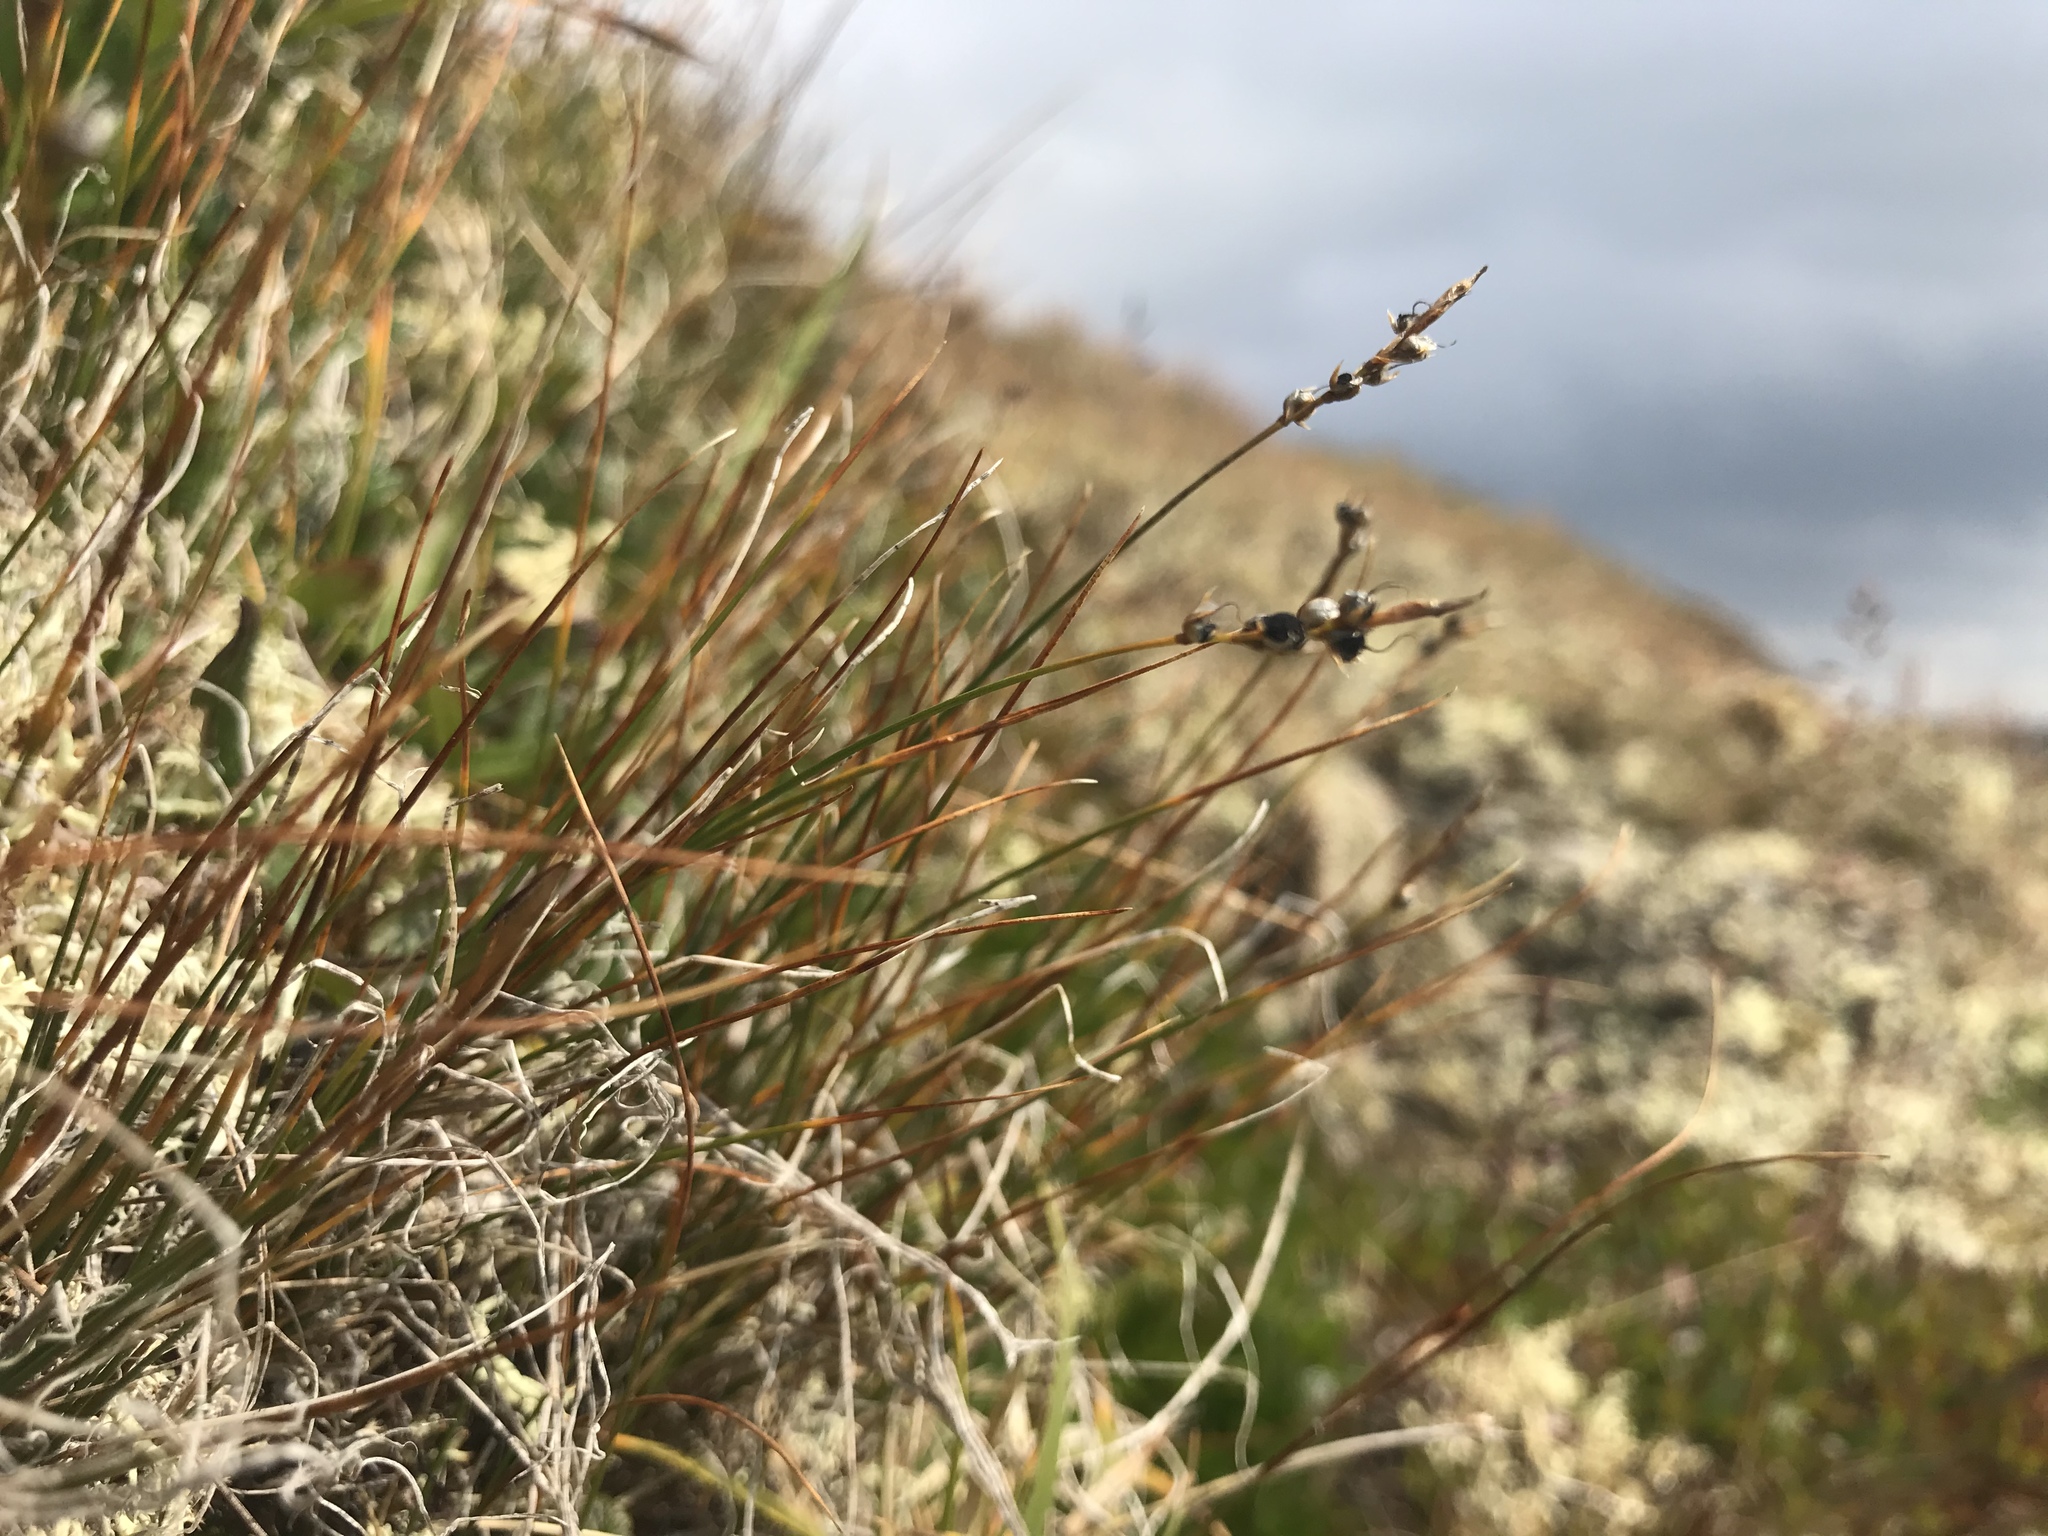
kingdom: Plantae
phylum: Tracheophyta
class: Liliopsida
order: Poales
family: Cyperaceae
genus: Carex
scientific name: Carex myosuroides
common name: Bellard's bog sedge
